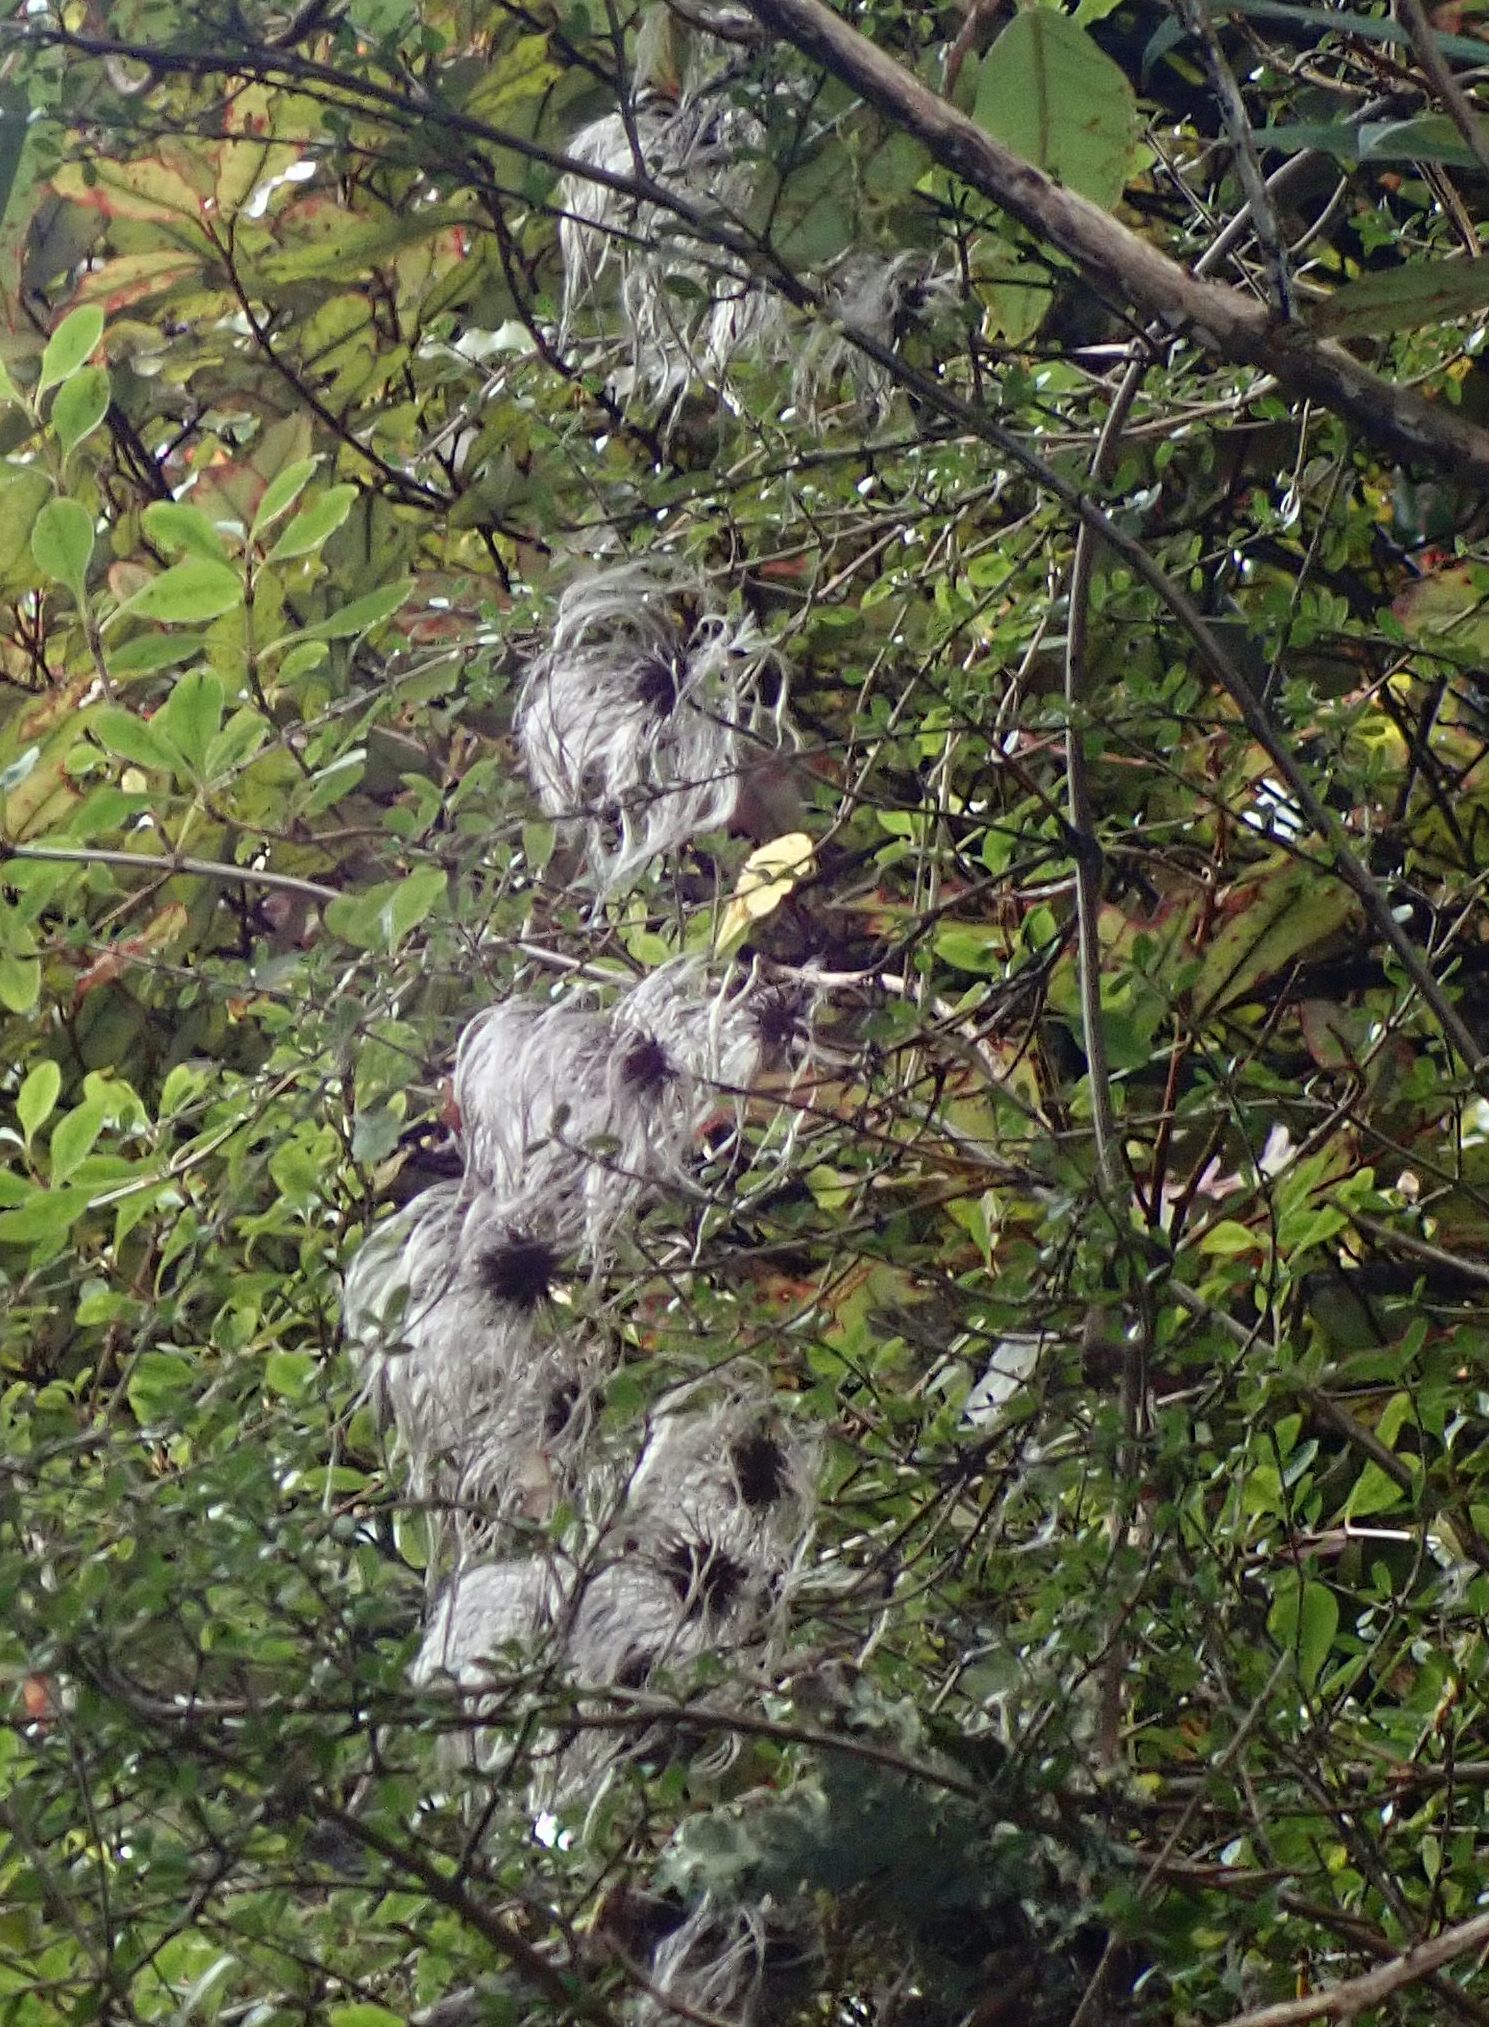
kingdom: Plantae
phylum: Tracheophyta
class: Magnoliopsida
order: Ranunculales
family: Ranunculaceae
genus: Clematis
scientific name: Clematis paniculata
